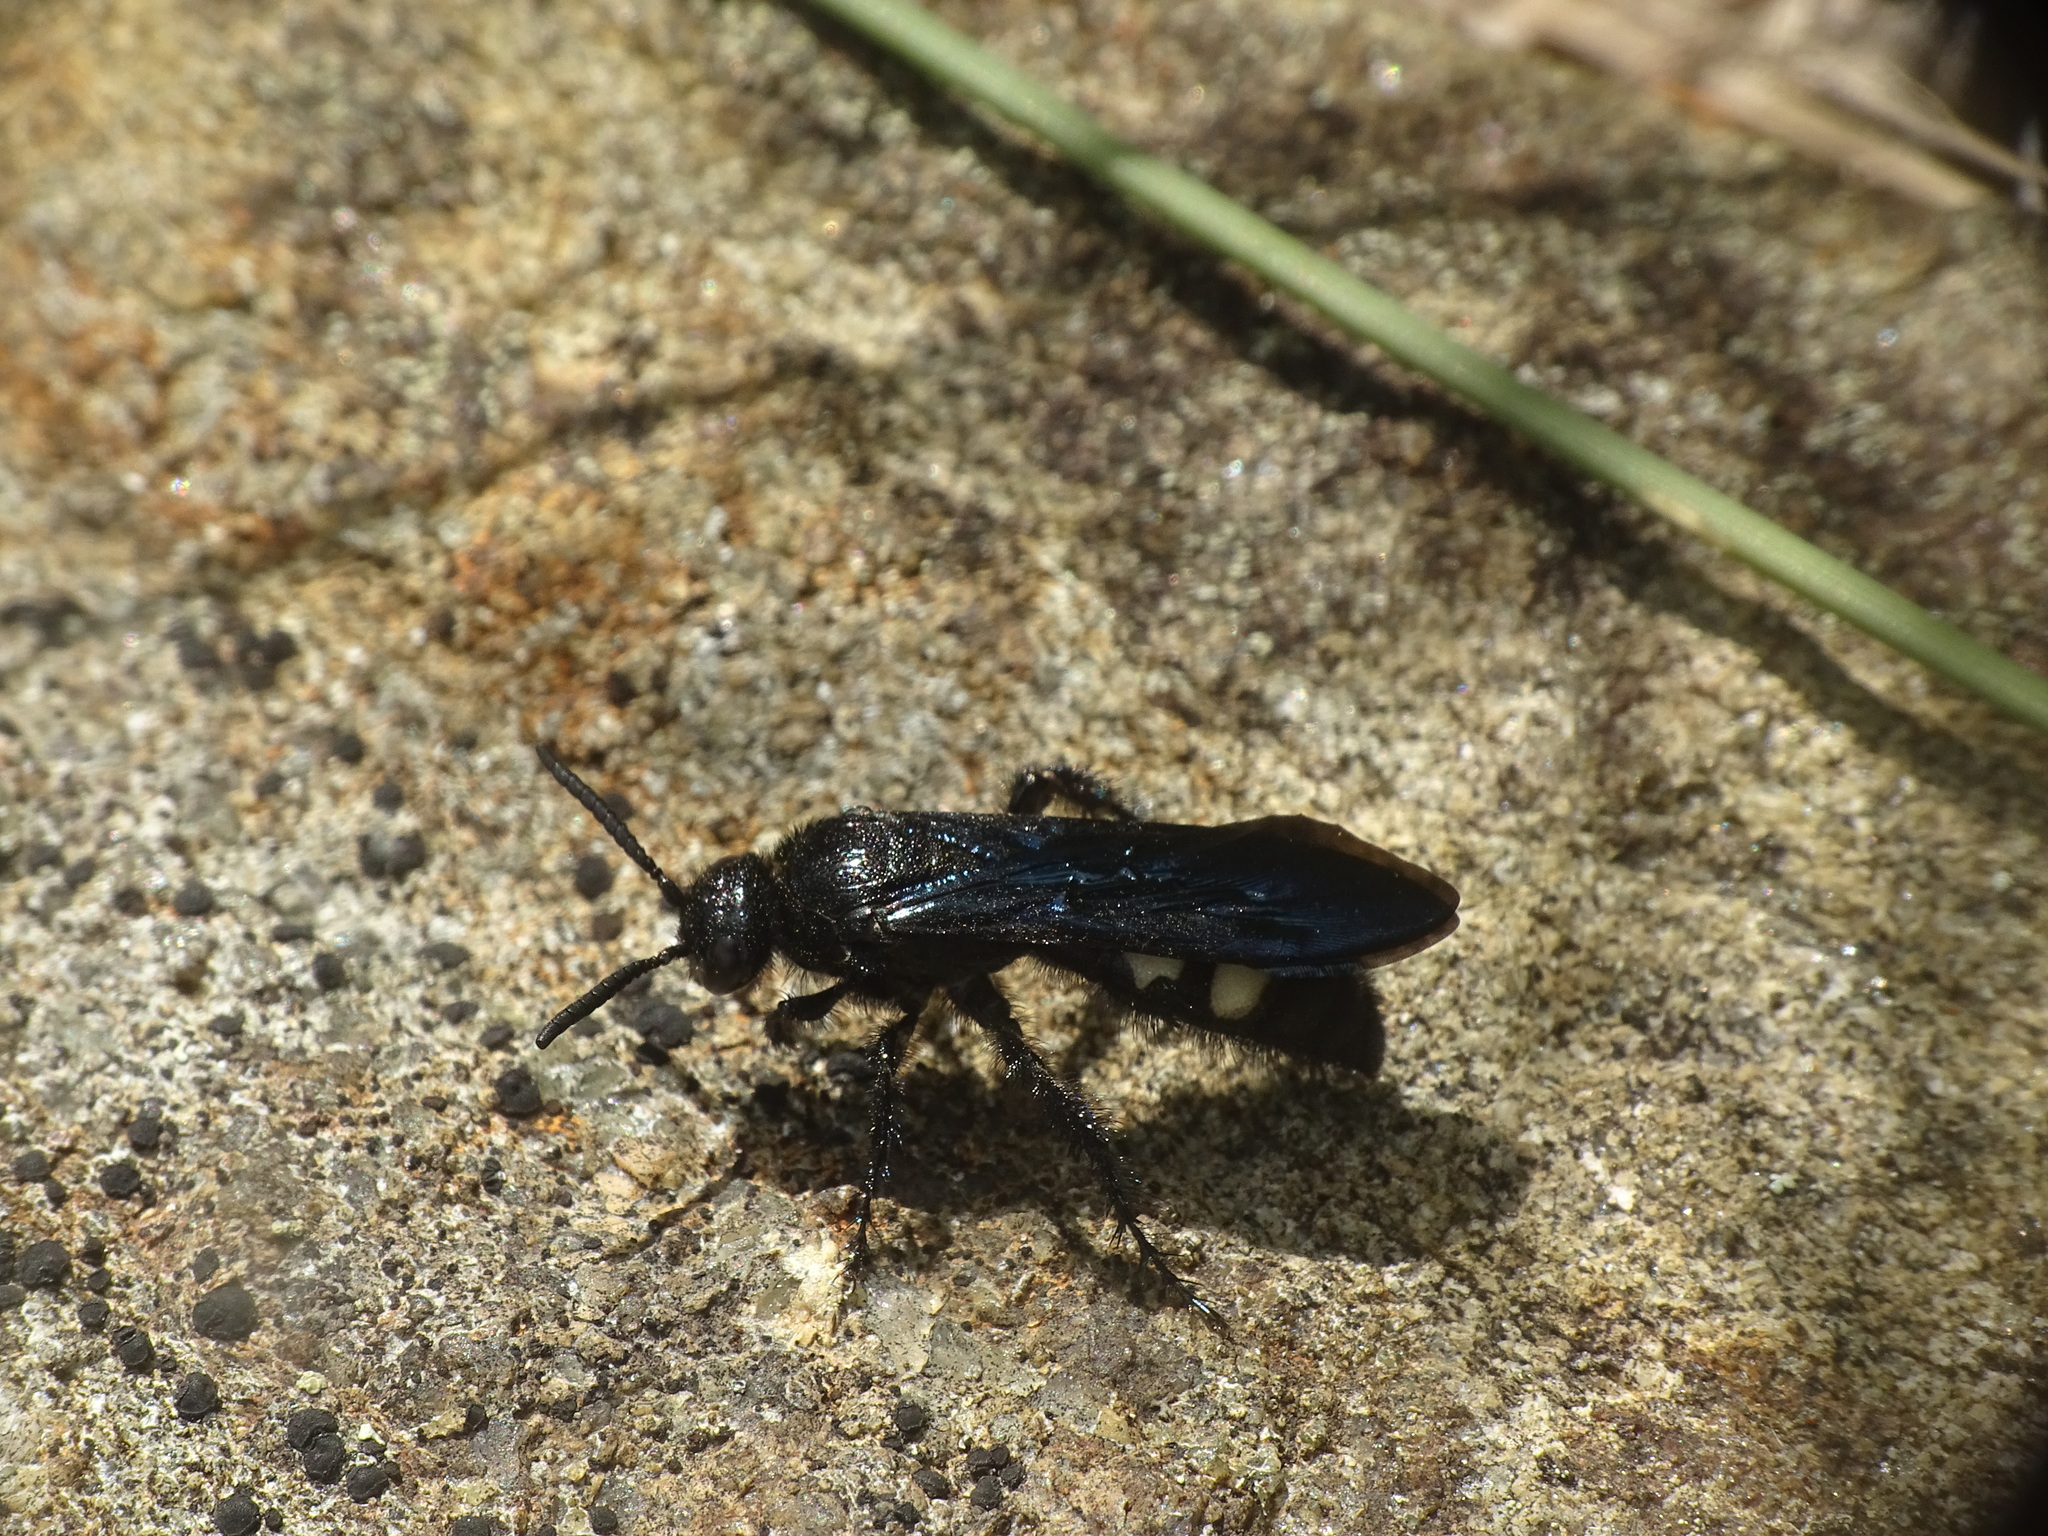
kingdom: Animalia
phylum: Arthropoda
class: Insecta
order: Hymenoptera
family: Scoliidae
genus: Scolia
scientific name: Scolia bicincta
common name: Double-banded scoliid wasp
